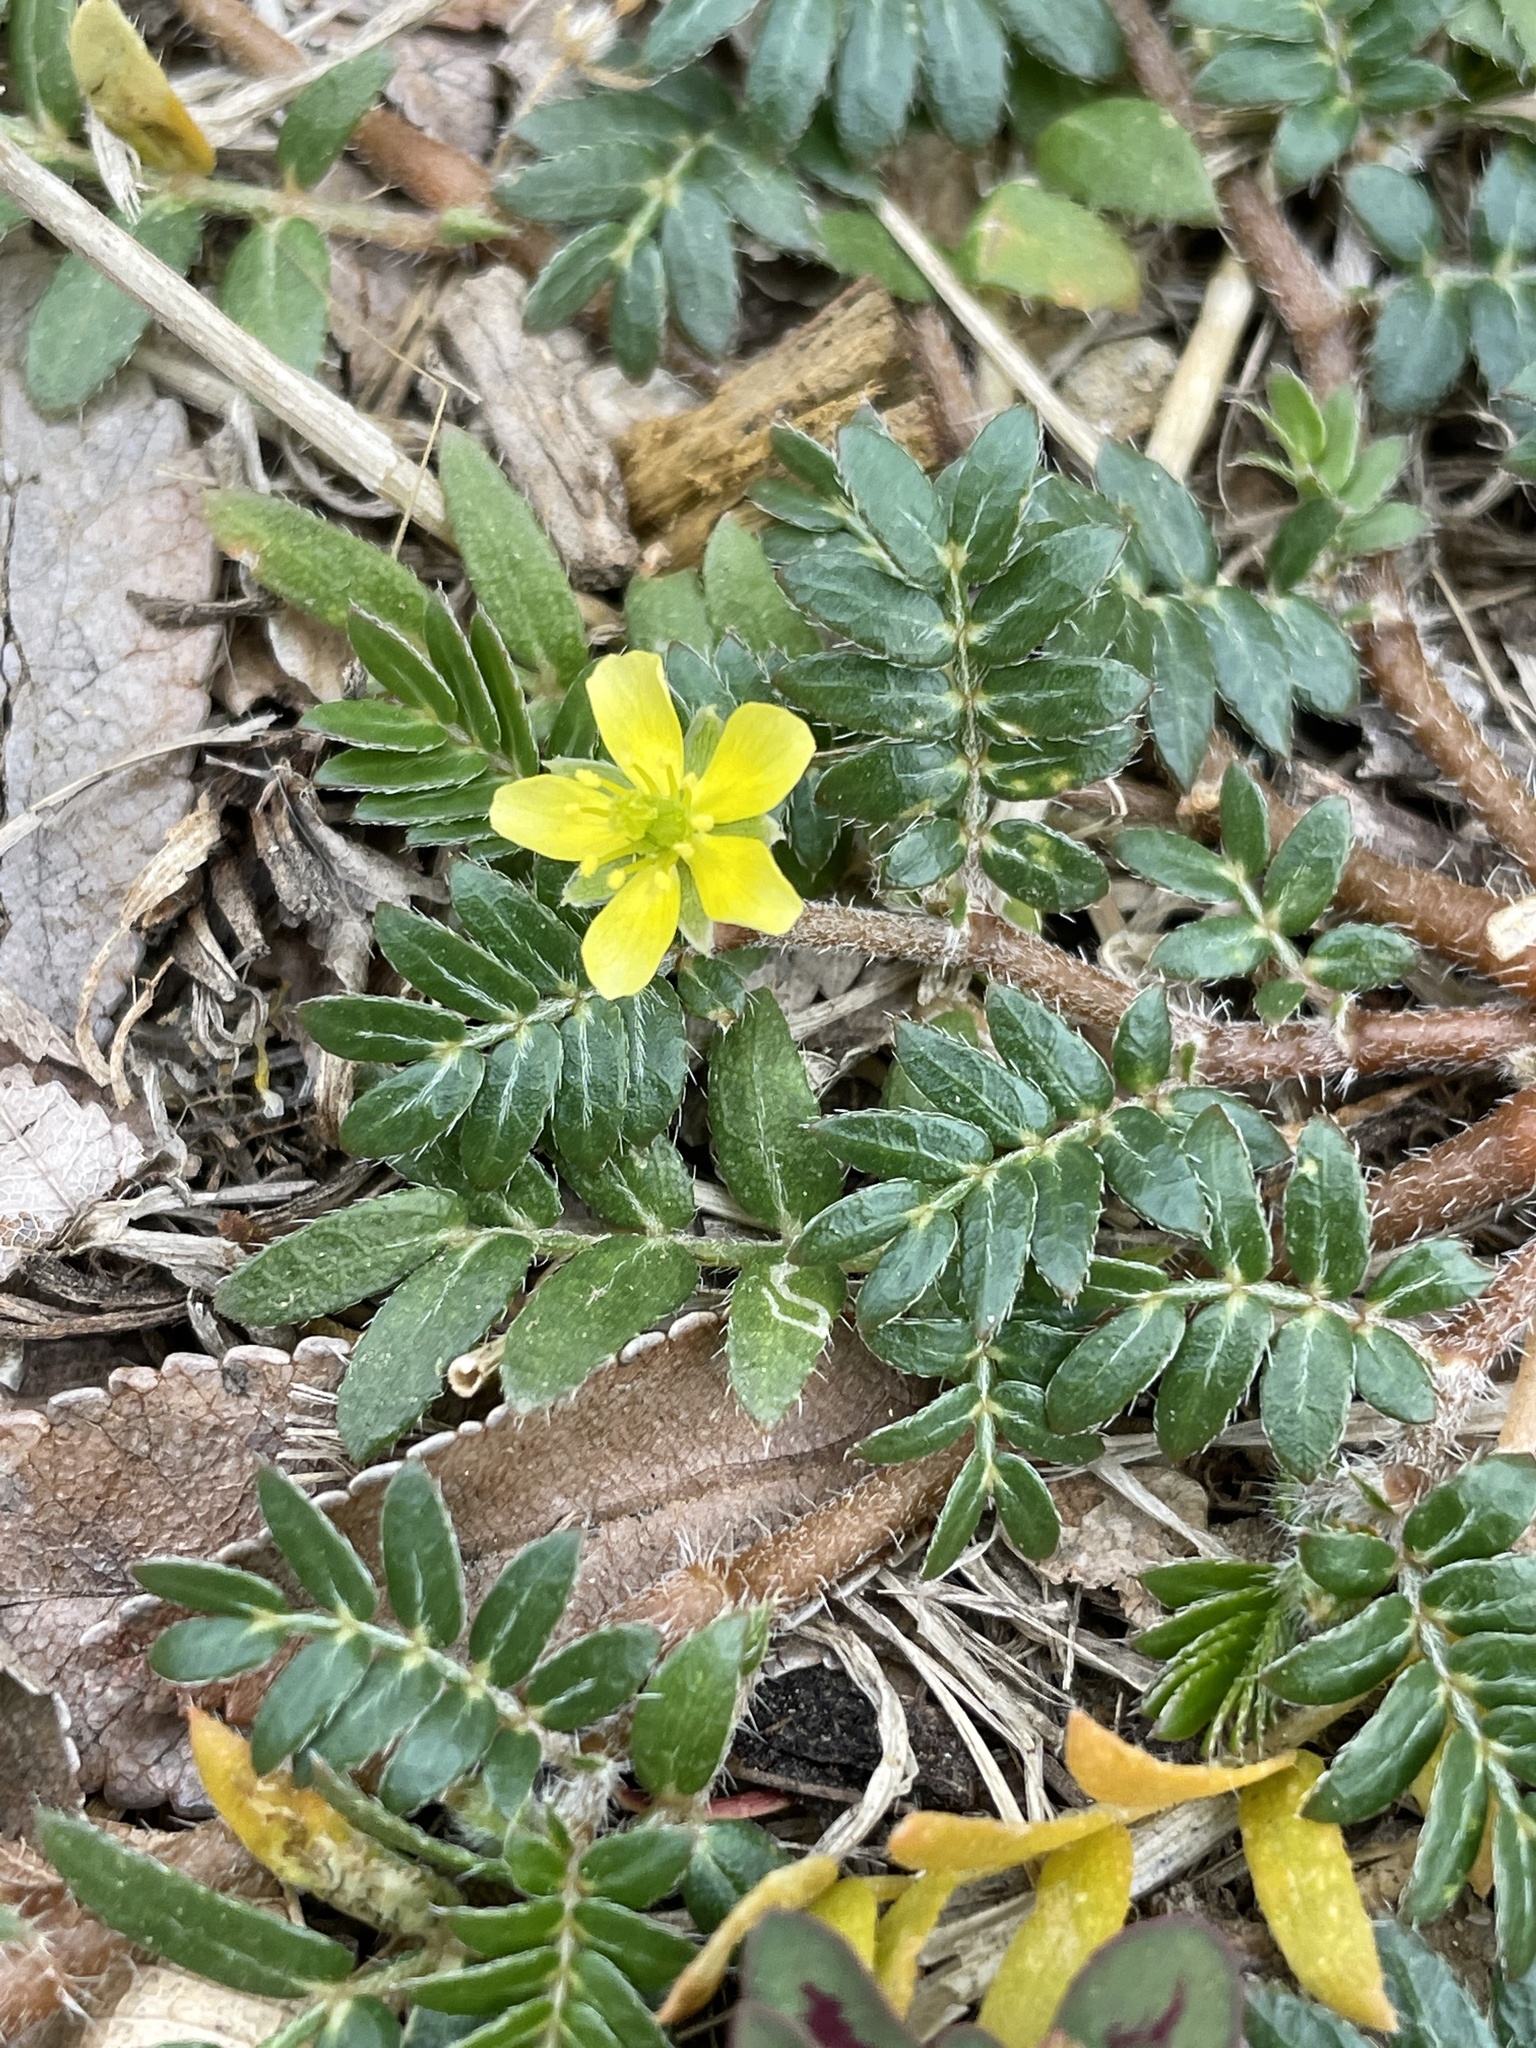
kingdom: Plantae
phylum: Tracheophyta
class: Magnoliopsida
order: Zygophyllales
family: Zygophyllaceae
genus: Tribulus
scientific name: Tribulus terrestris
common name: Puncturevine
